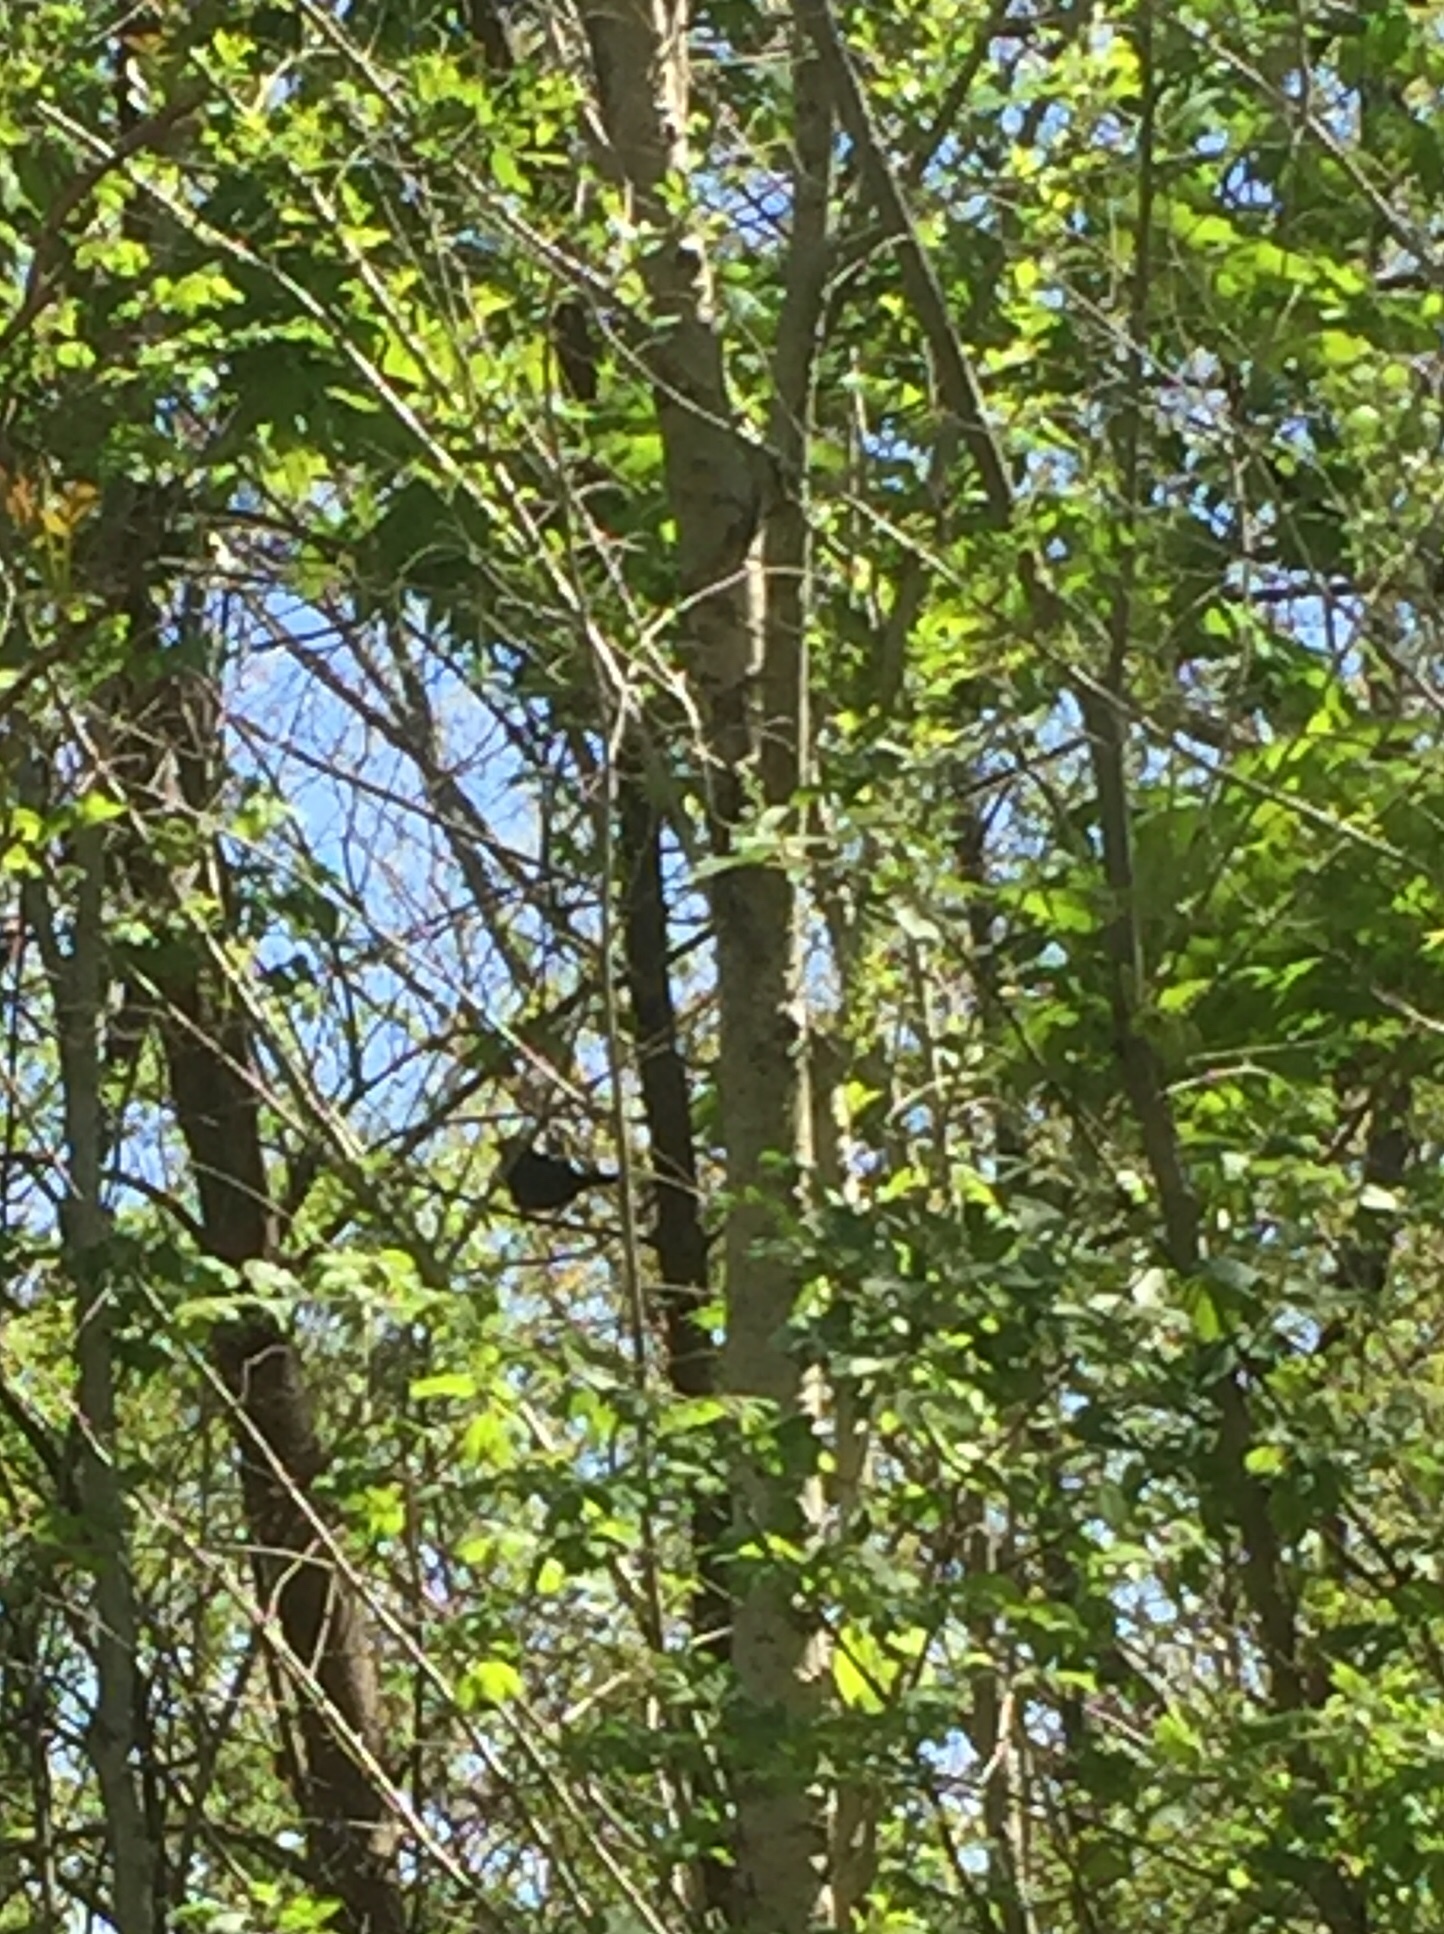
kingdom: Animalia
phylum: Chordata
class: Aves
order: Passeriformes
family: Mimidae
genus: Dumetella
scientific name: Dumetella carolinensis
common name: Gray catbird
